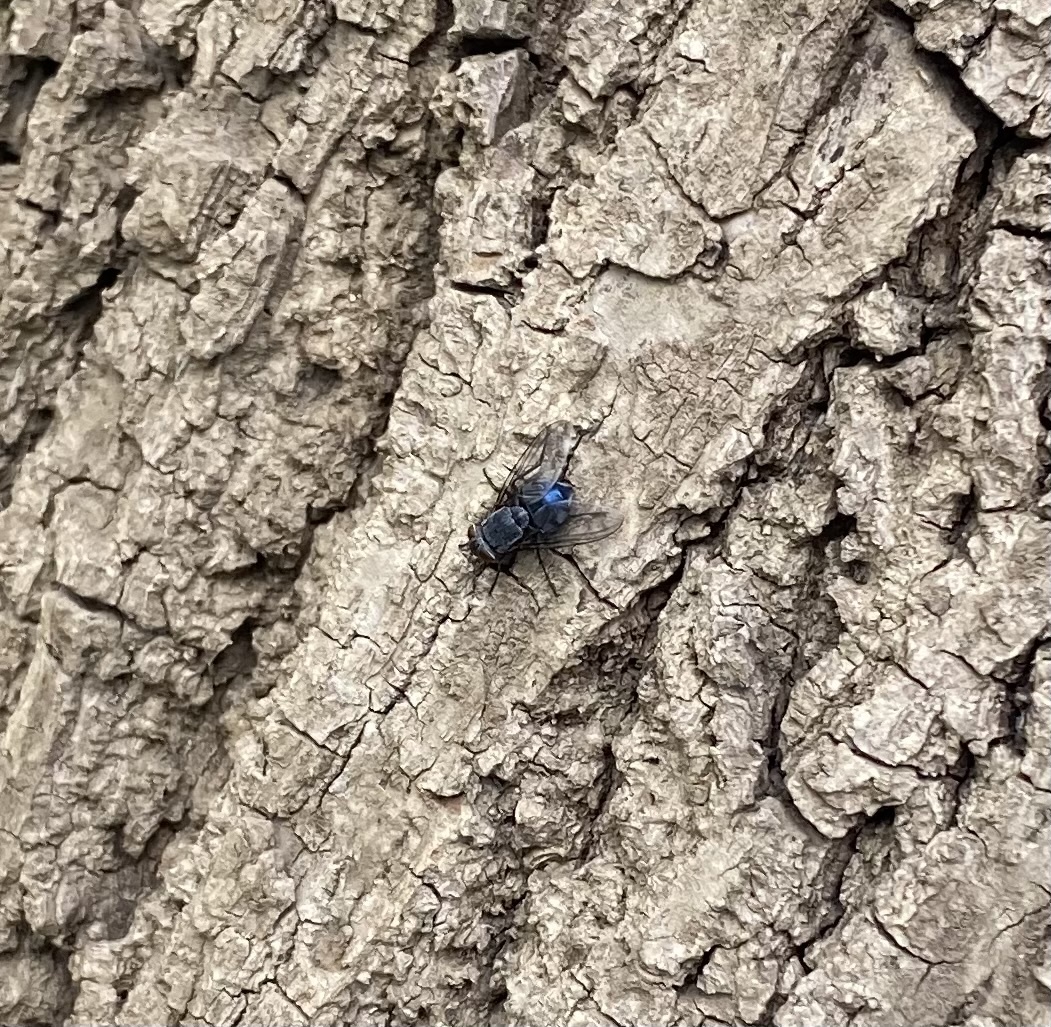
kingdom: Animalia
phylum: Arthropoda
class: Insecta
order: Diptera
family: Calliphoridae
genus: Calliphora
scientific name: Calliphora
